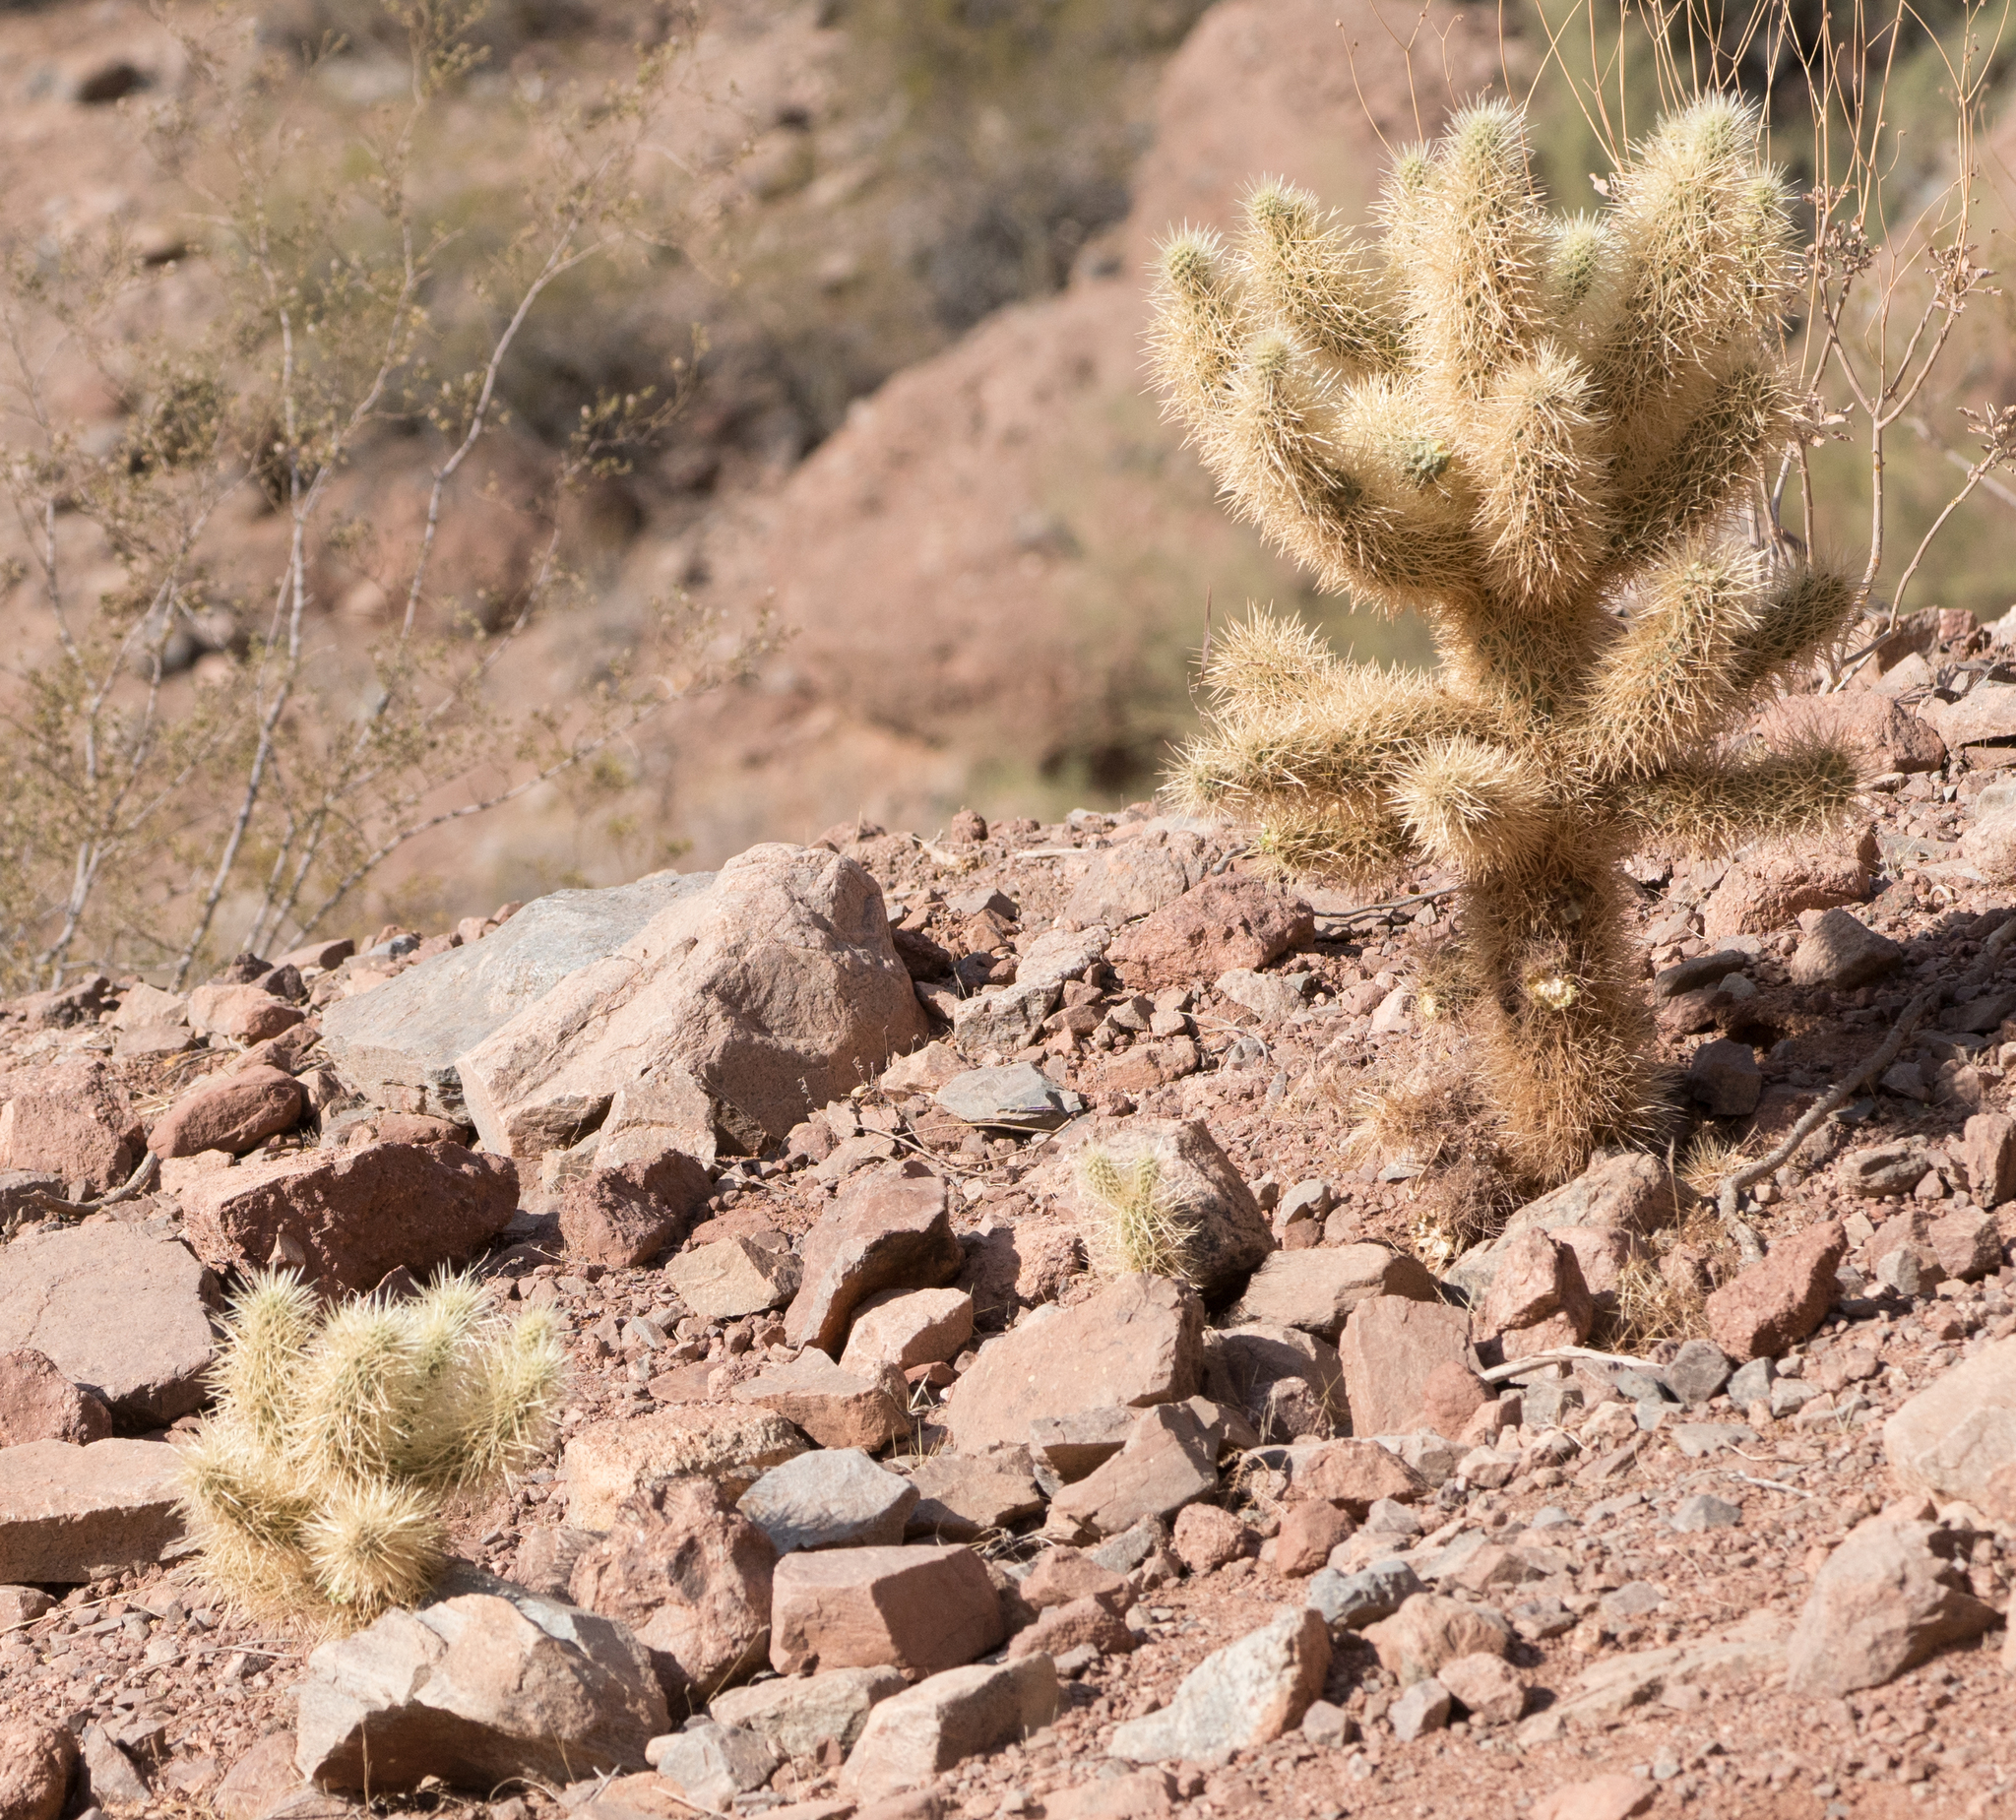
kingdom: Plantae
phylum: Tracheophyta
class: Magnoliopsida
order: Caryophyllales
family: Cactaceae
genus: Cylindropuntia
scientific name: Cylindropuntia fosbergii
